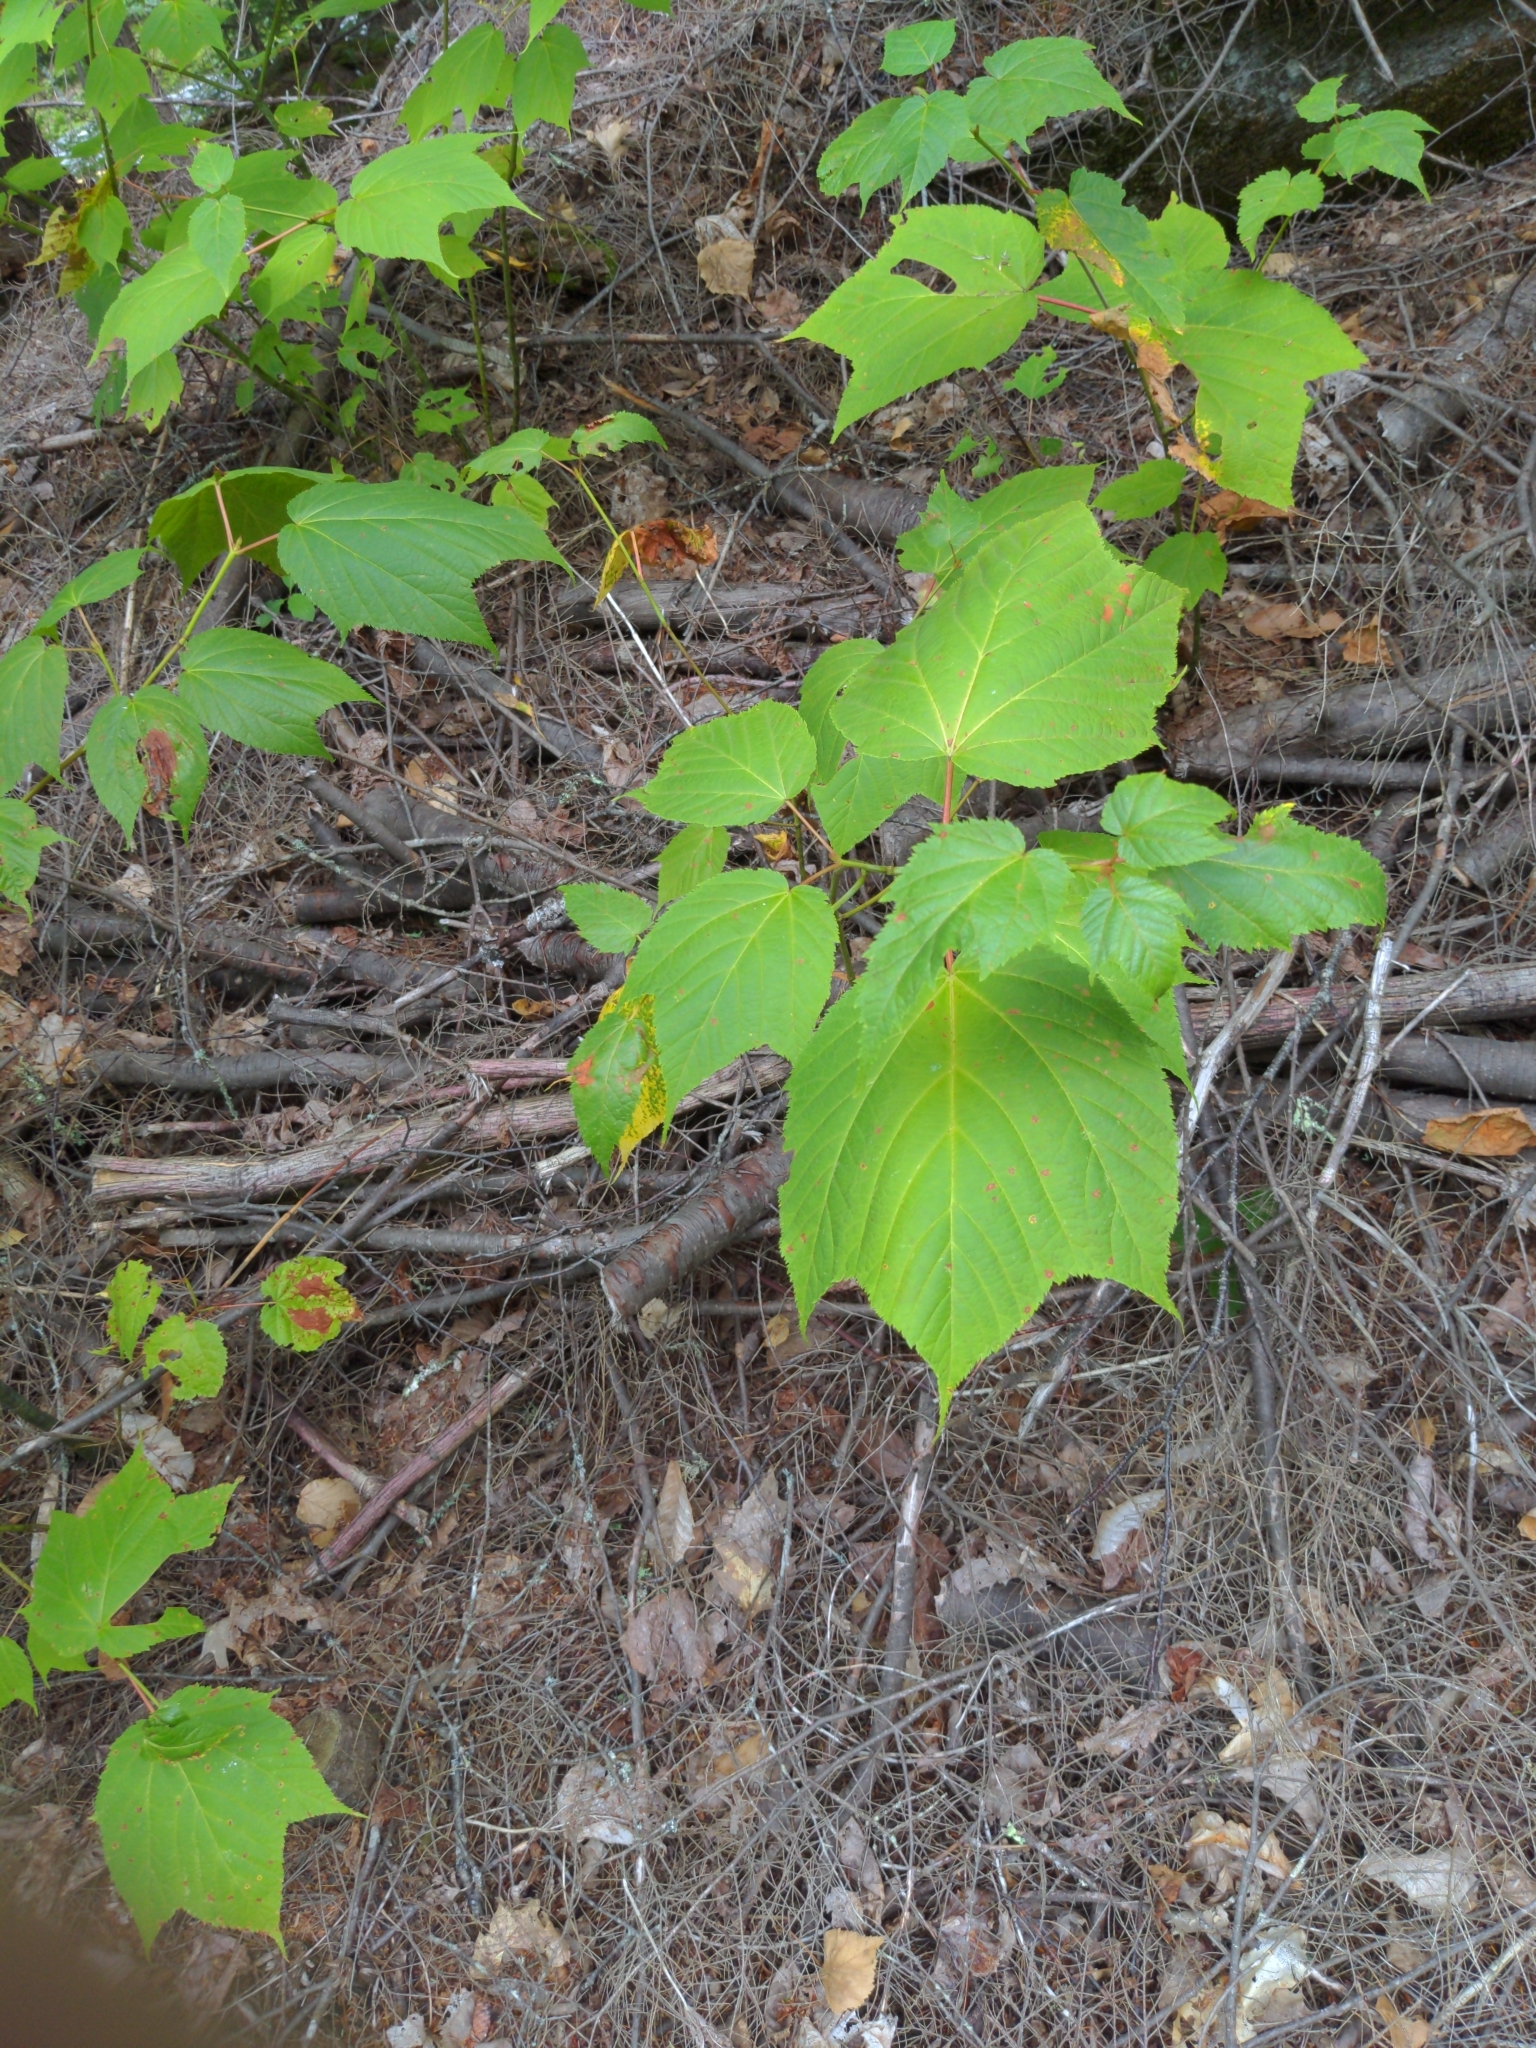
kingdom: Plantae
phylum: Tracheophyta
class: Magnoliopsida
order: Sapindales
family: Sapindaceae
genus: Acer
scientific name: Acer pensylvanicum
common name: Moosewood
